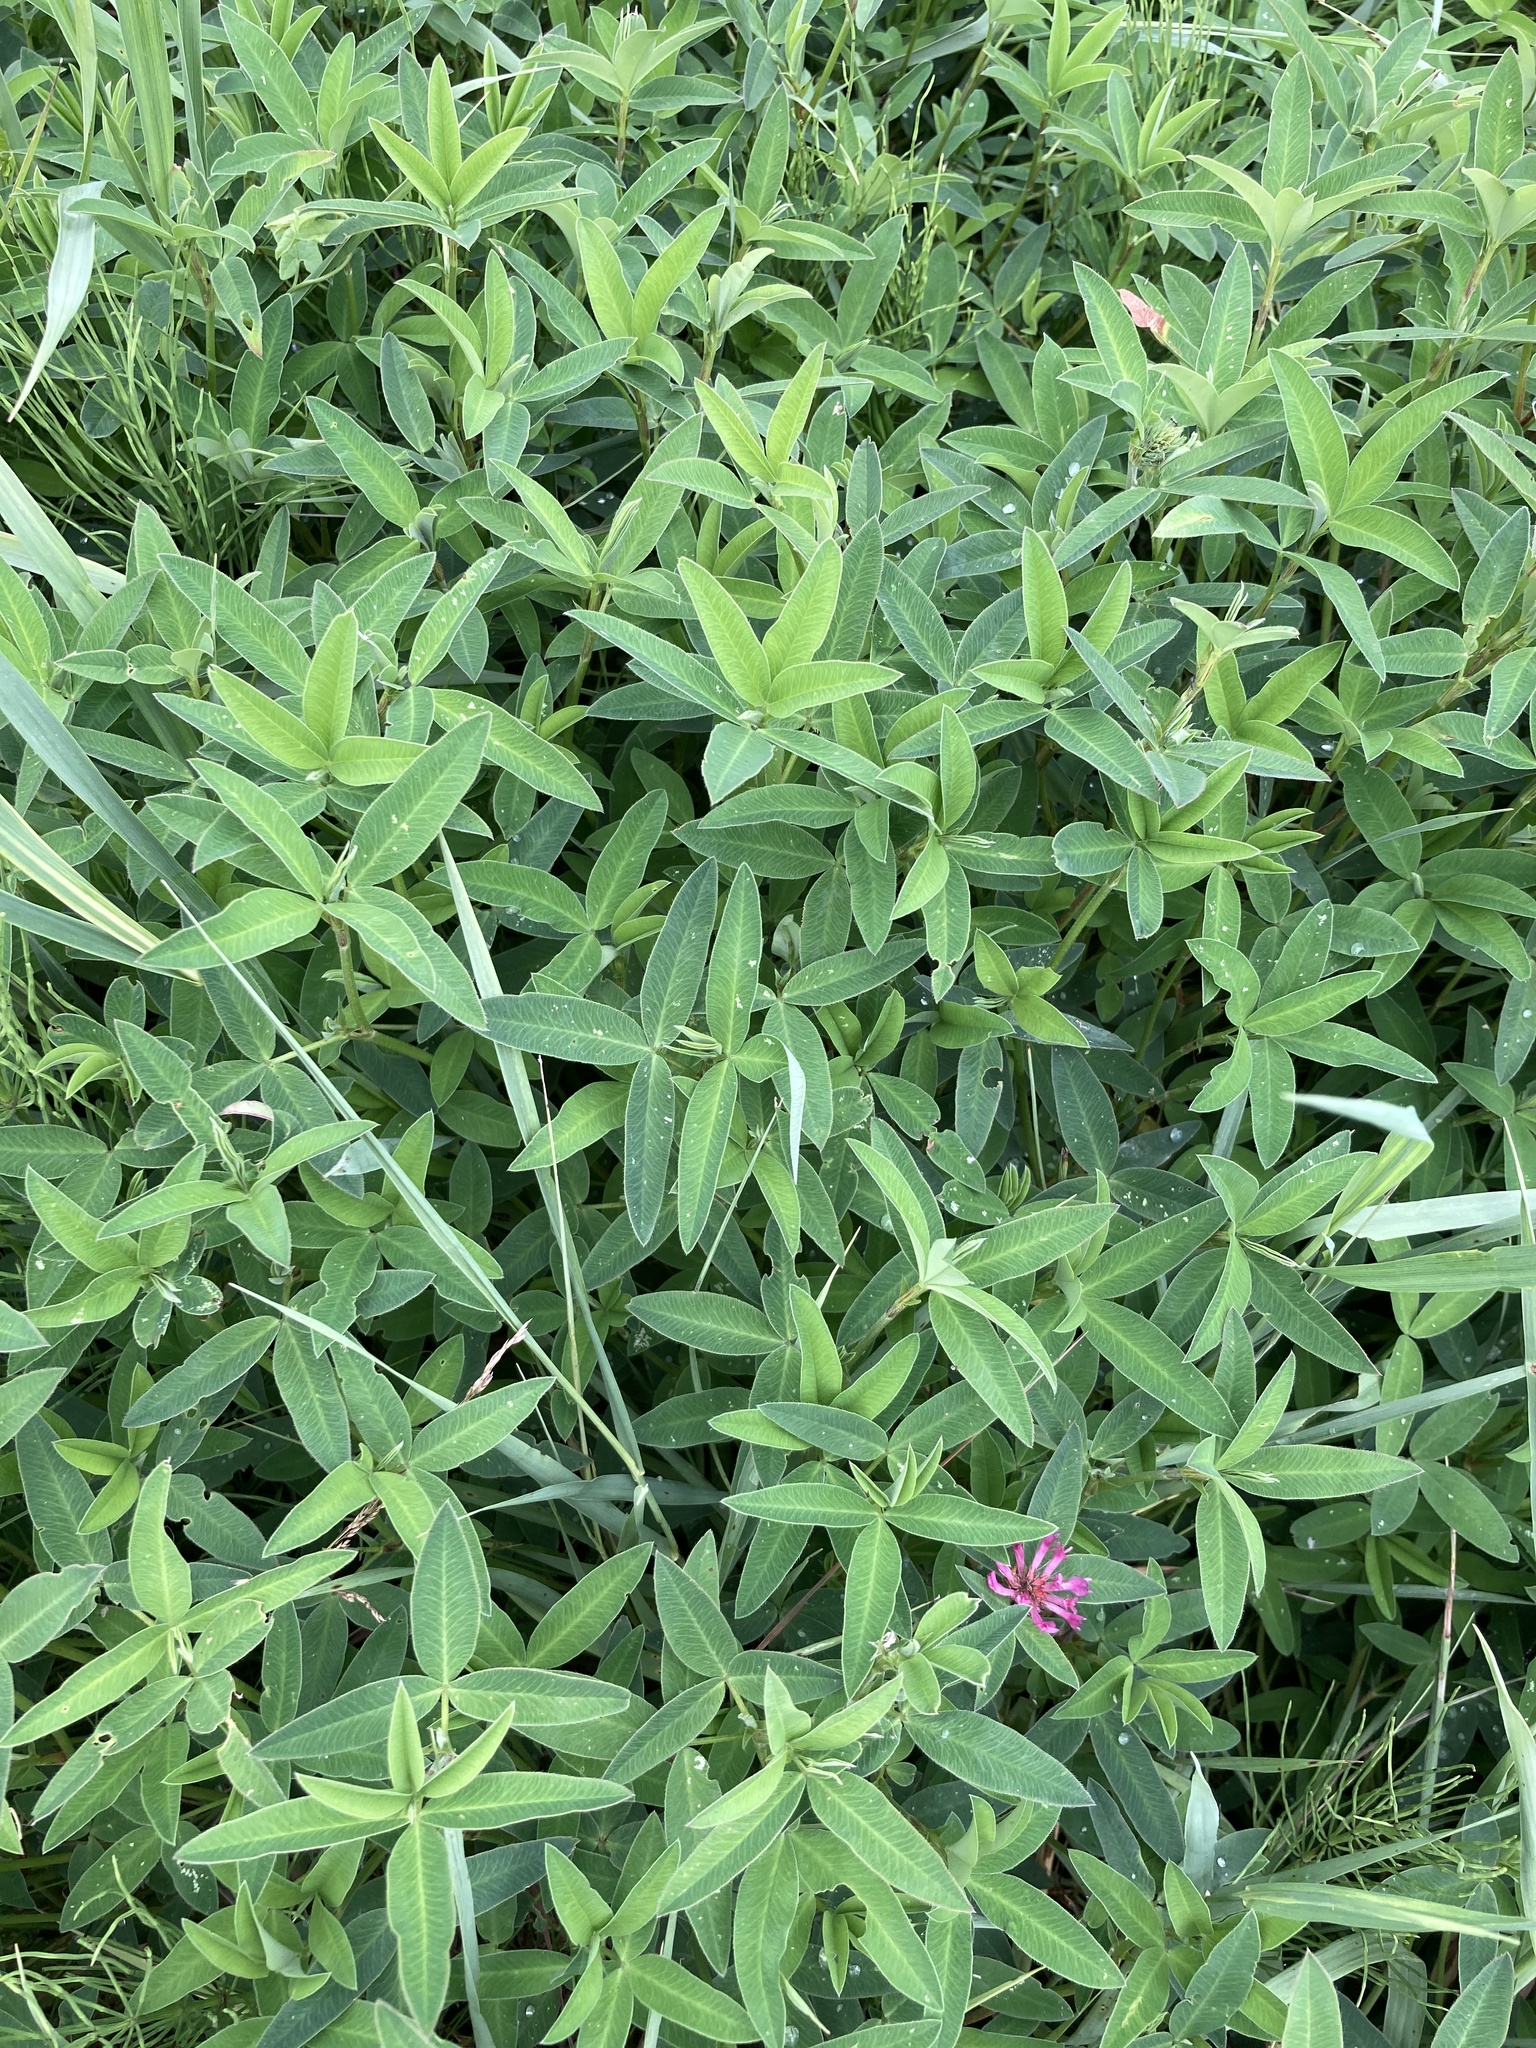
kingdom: Plantae
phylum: Tracheophyta
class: Magnoliopsida
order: Fabales
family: Fabaceae
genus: Trifolium
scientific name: Trifolium medium
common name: Zigzag clover
